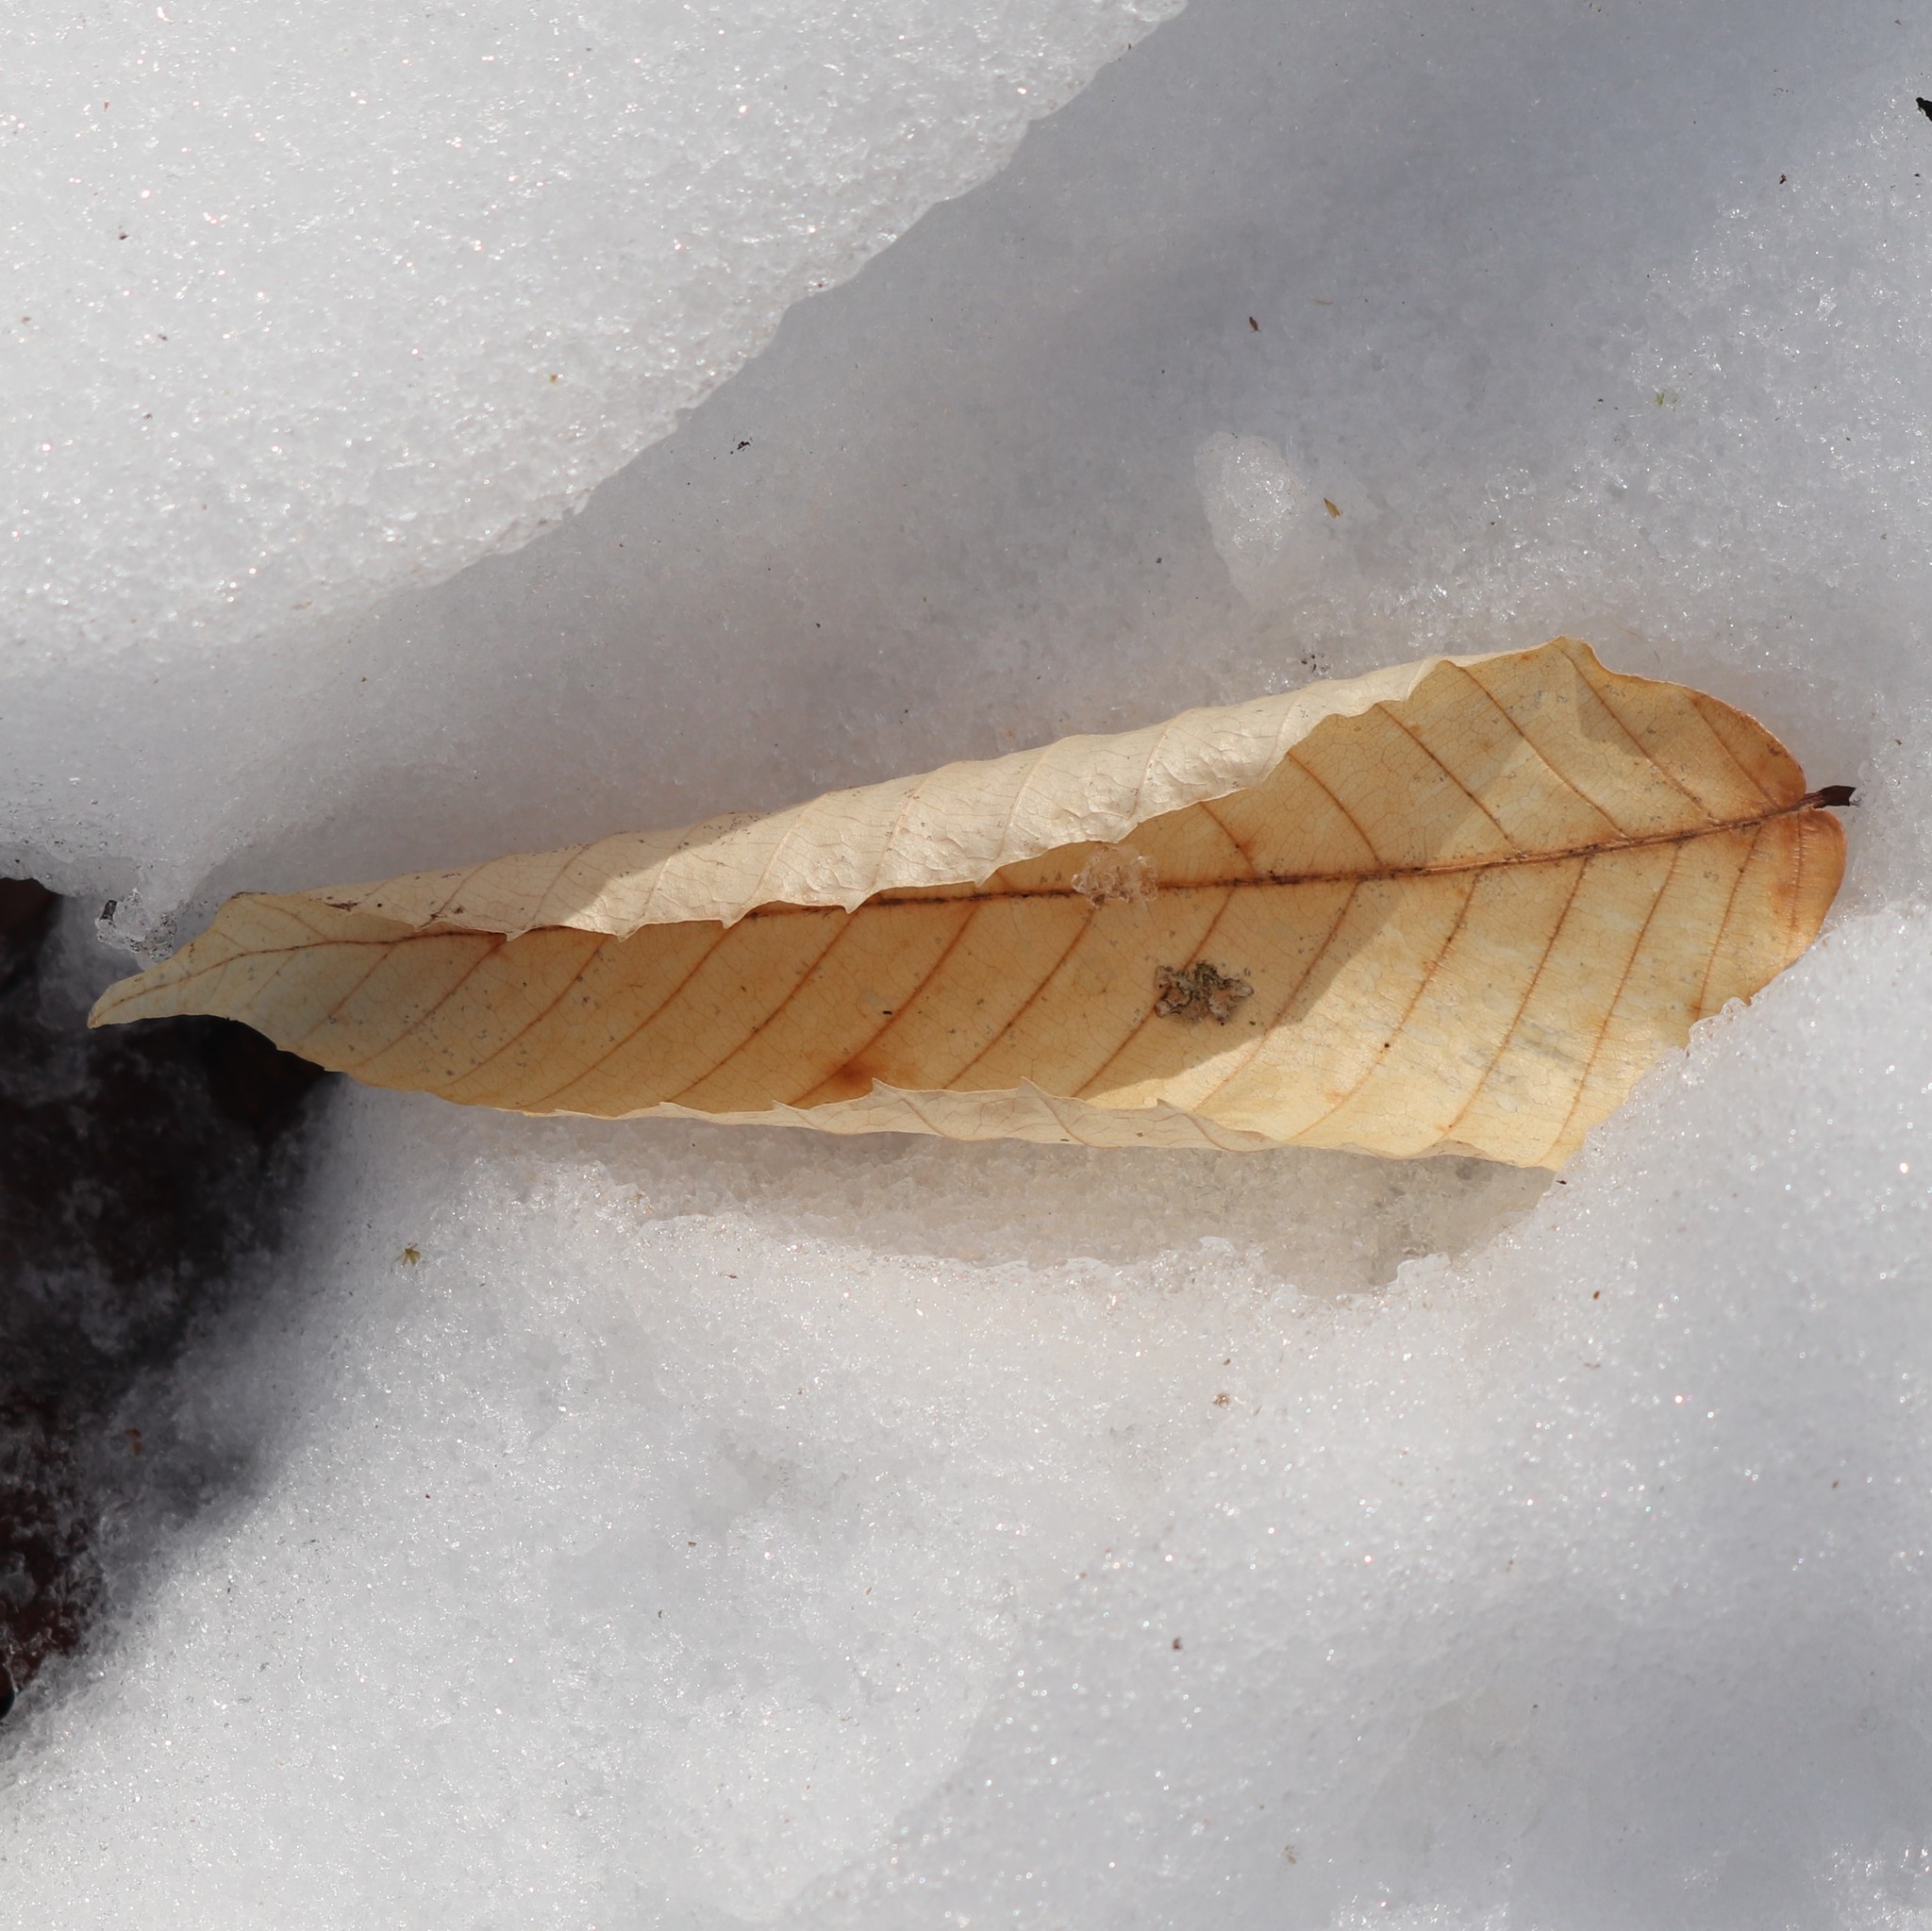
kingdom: Plantae
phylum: Tracheophyta
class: Magnoliopsida
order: Fagales
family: Fagaceae
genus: Fagus
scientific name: Fagus grandifolia
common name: American beech
